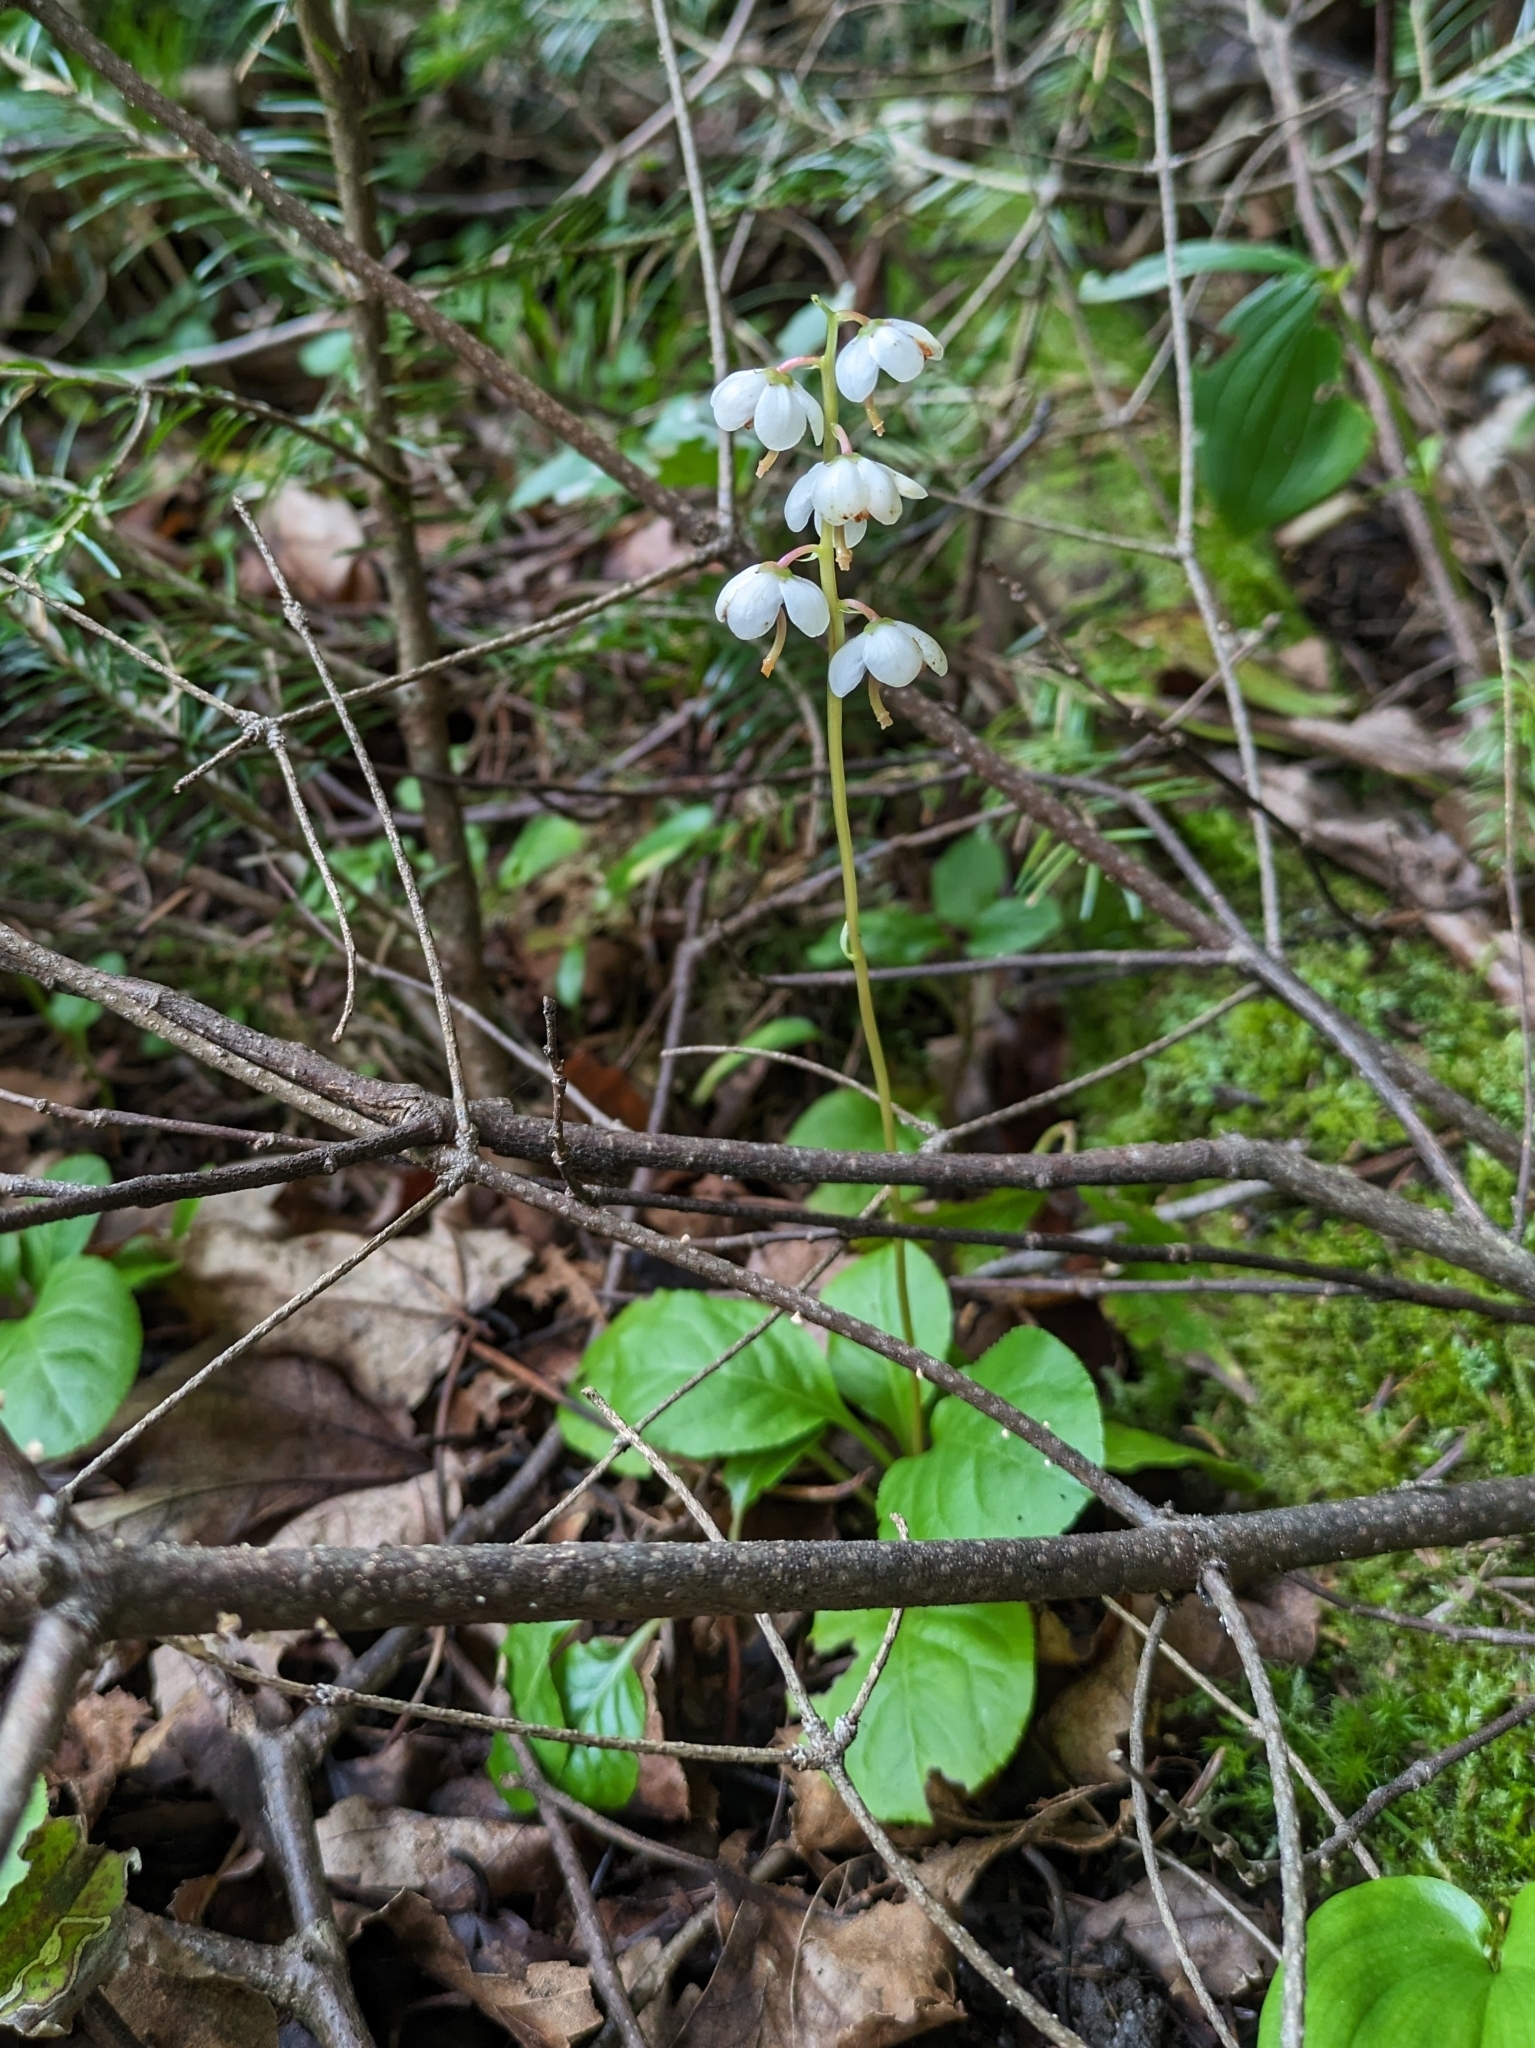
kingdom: Plantae
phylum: Tracheophyta
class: Magnoliopsida
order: Ericales
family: Ericaceae
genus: Pyrola
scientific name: Pyrola elliptica
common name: Shinleaf
